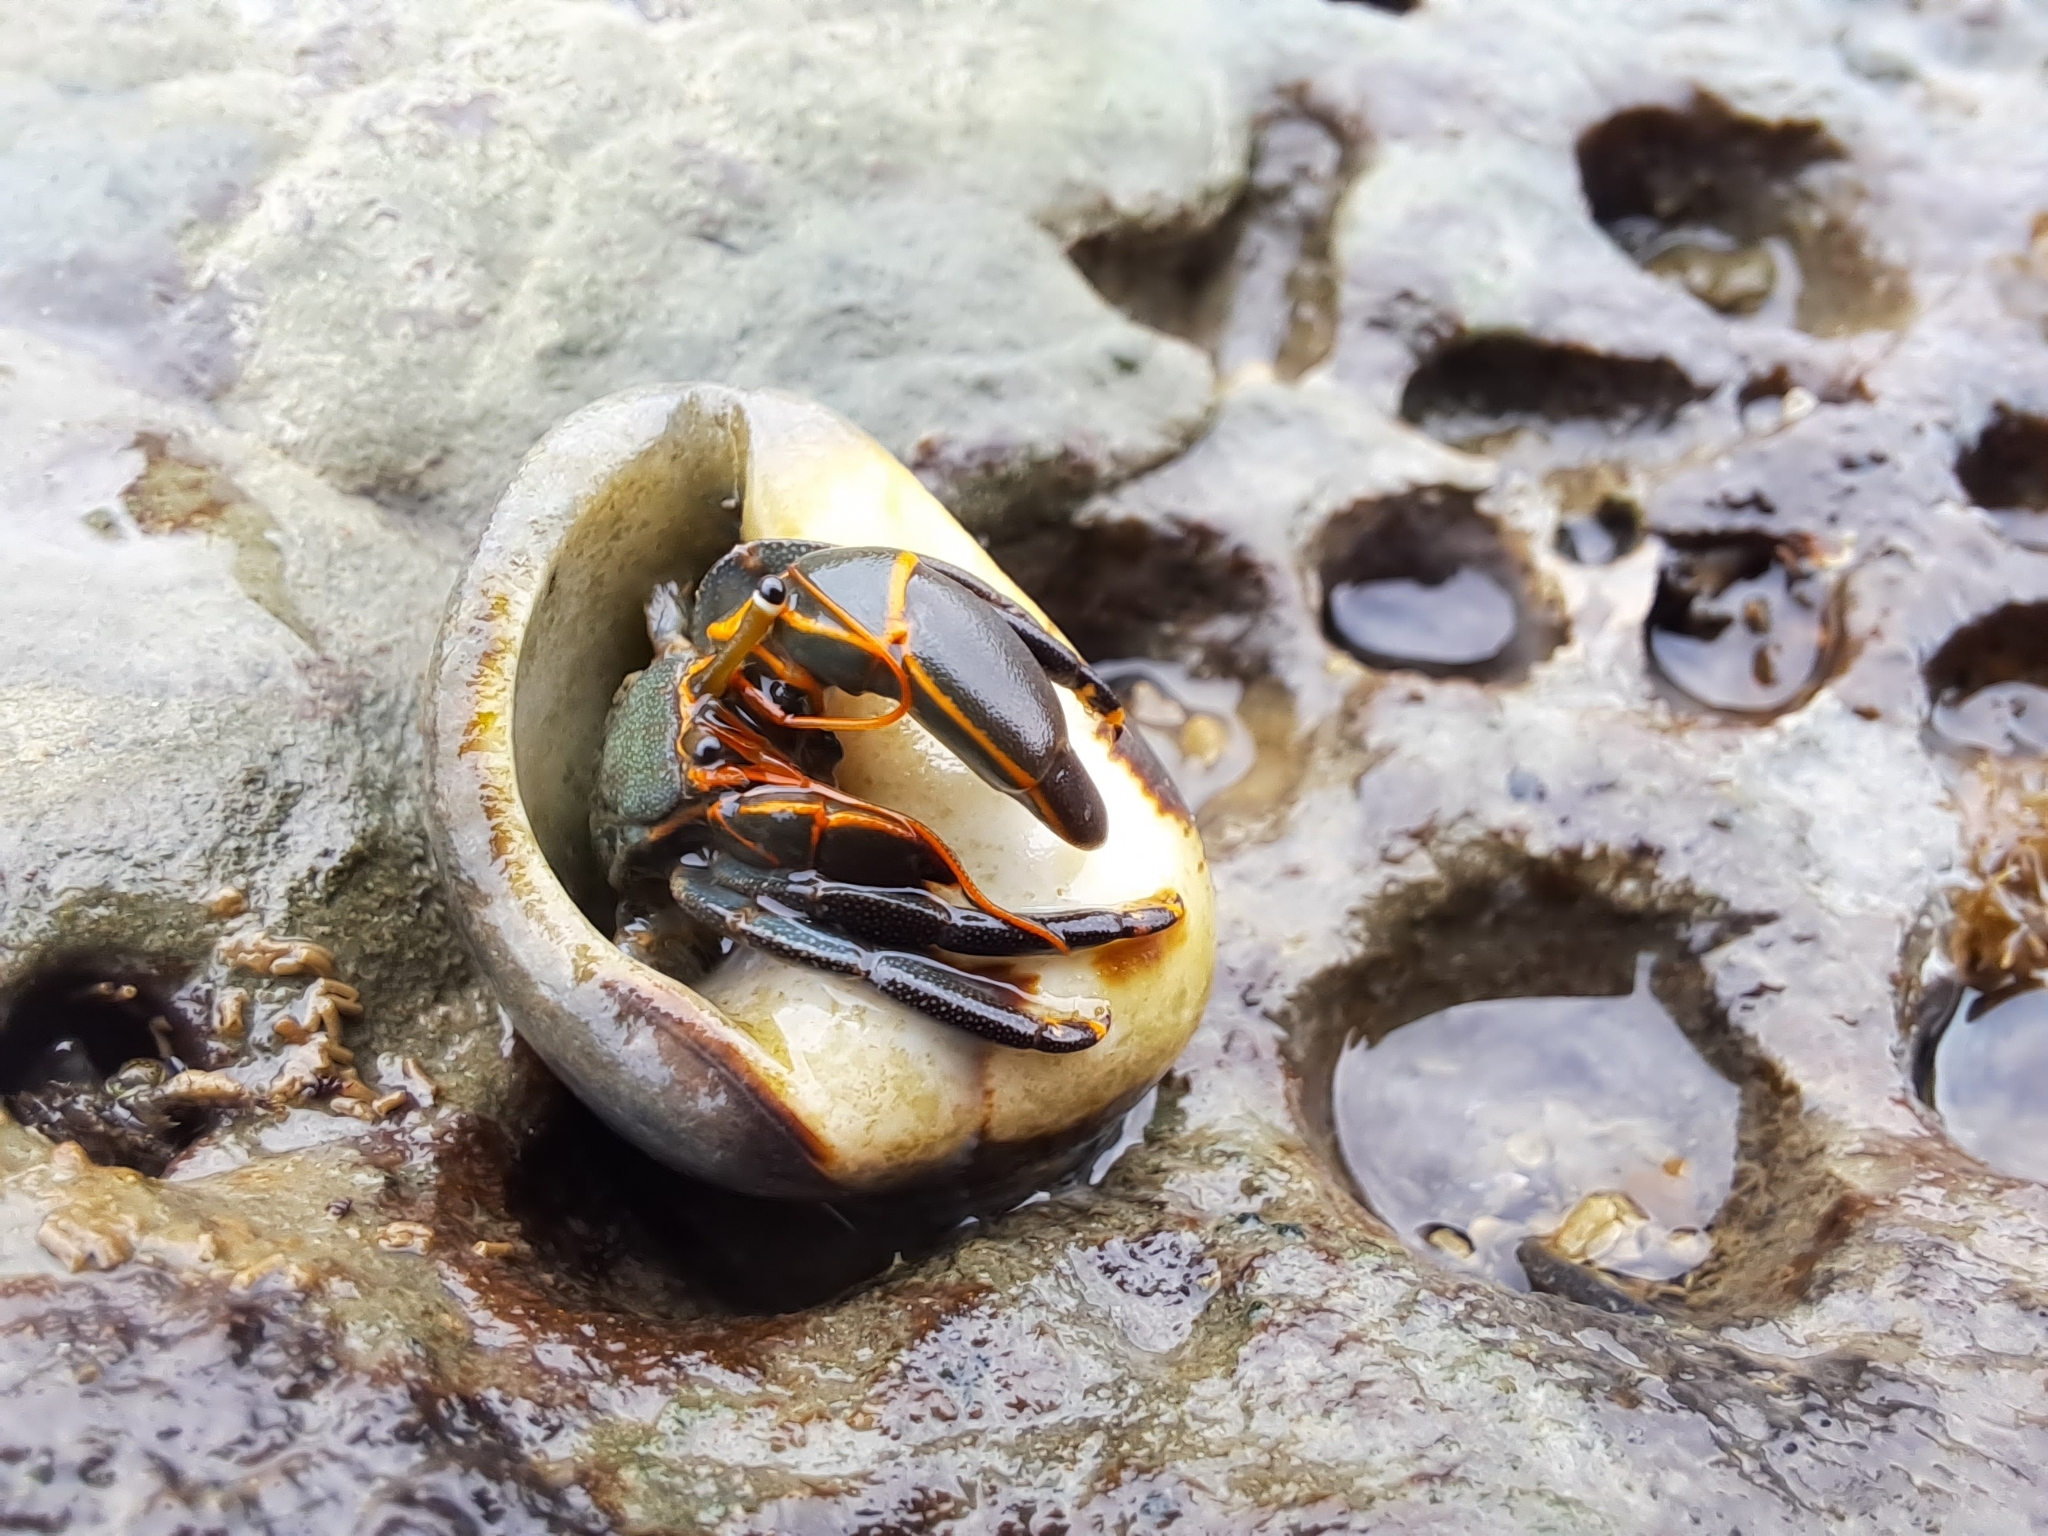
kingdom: Animalia
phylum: Arthropoda
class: Malacostraca
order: Decapoda
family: Diogenidae
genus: Calcinus
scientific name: Calcinus obscurus
